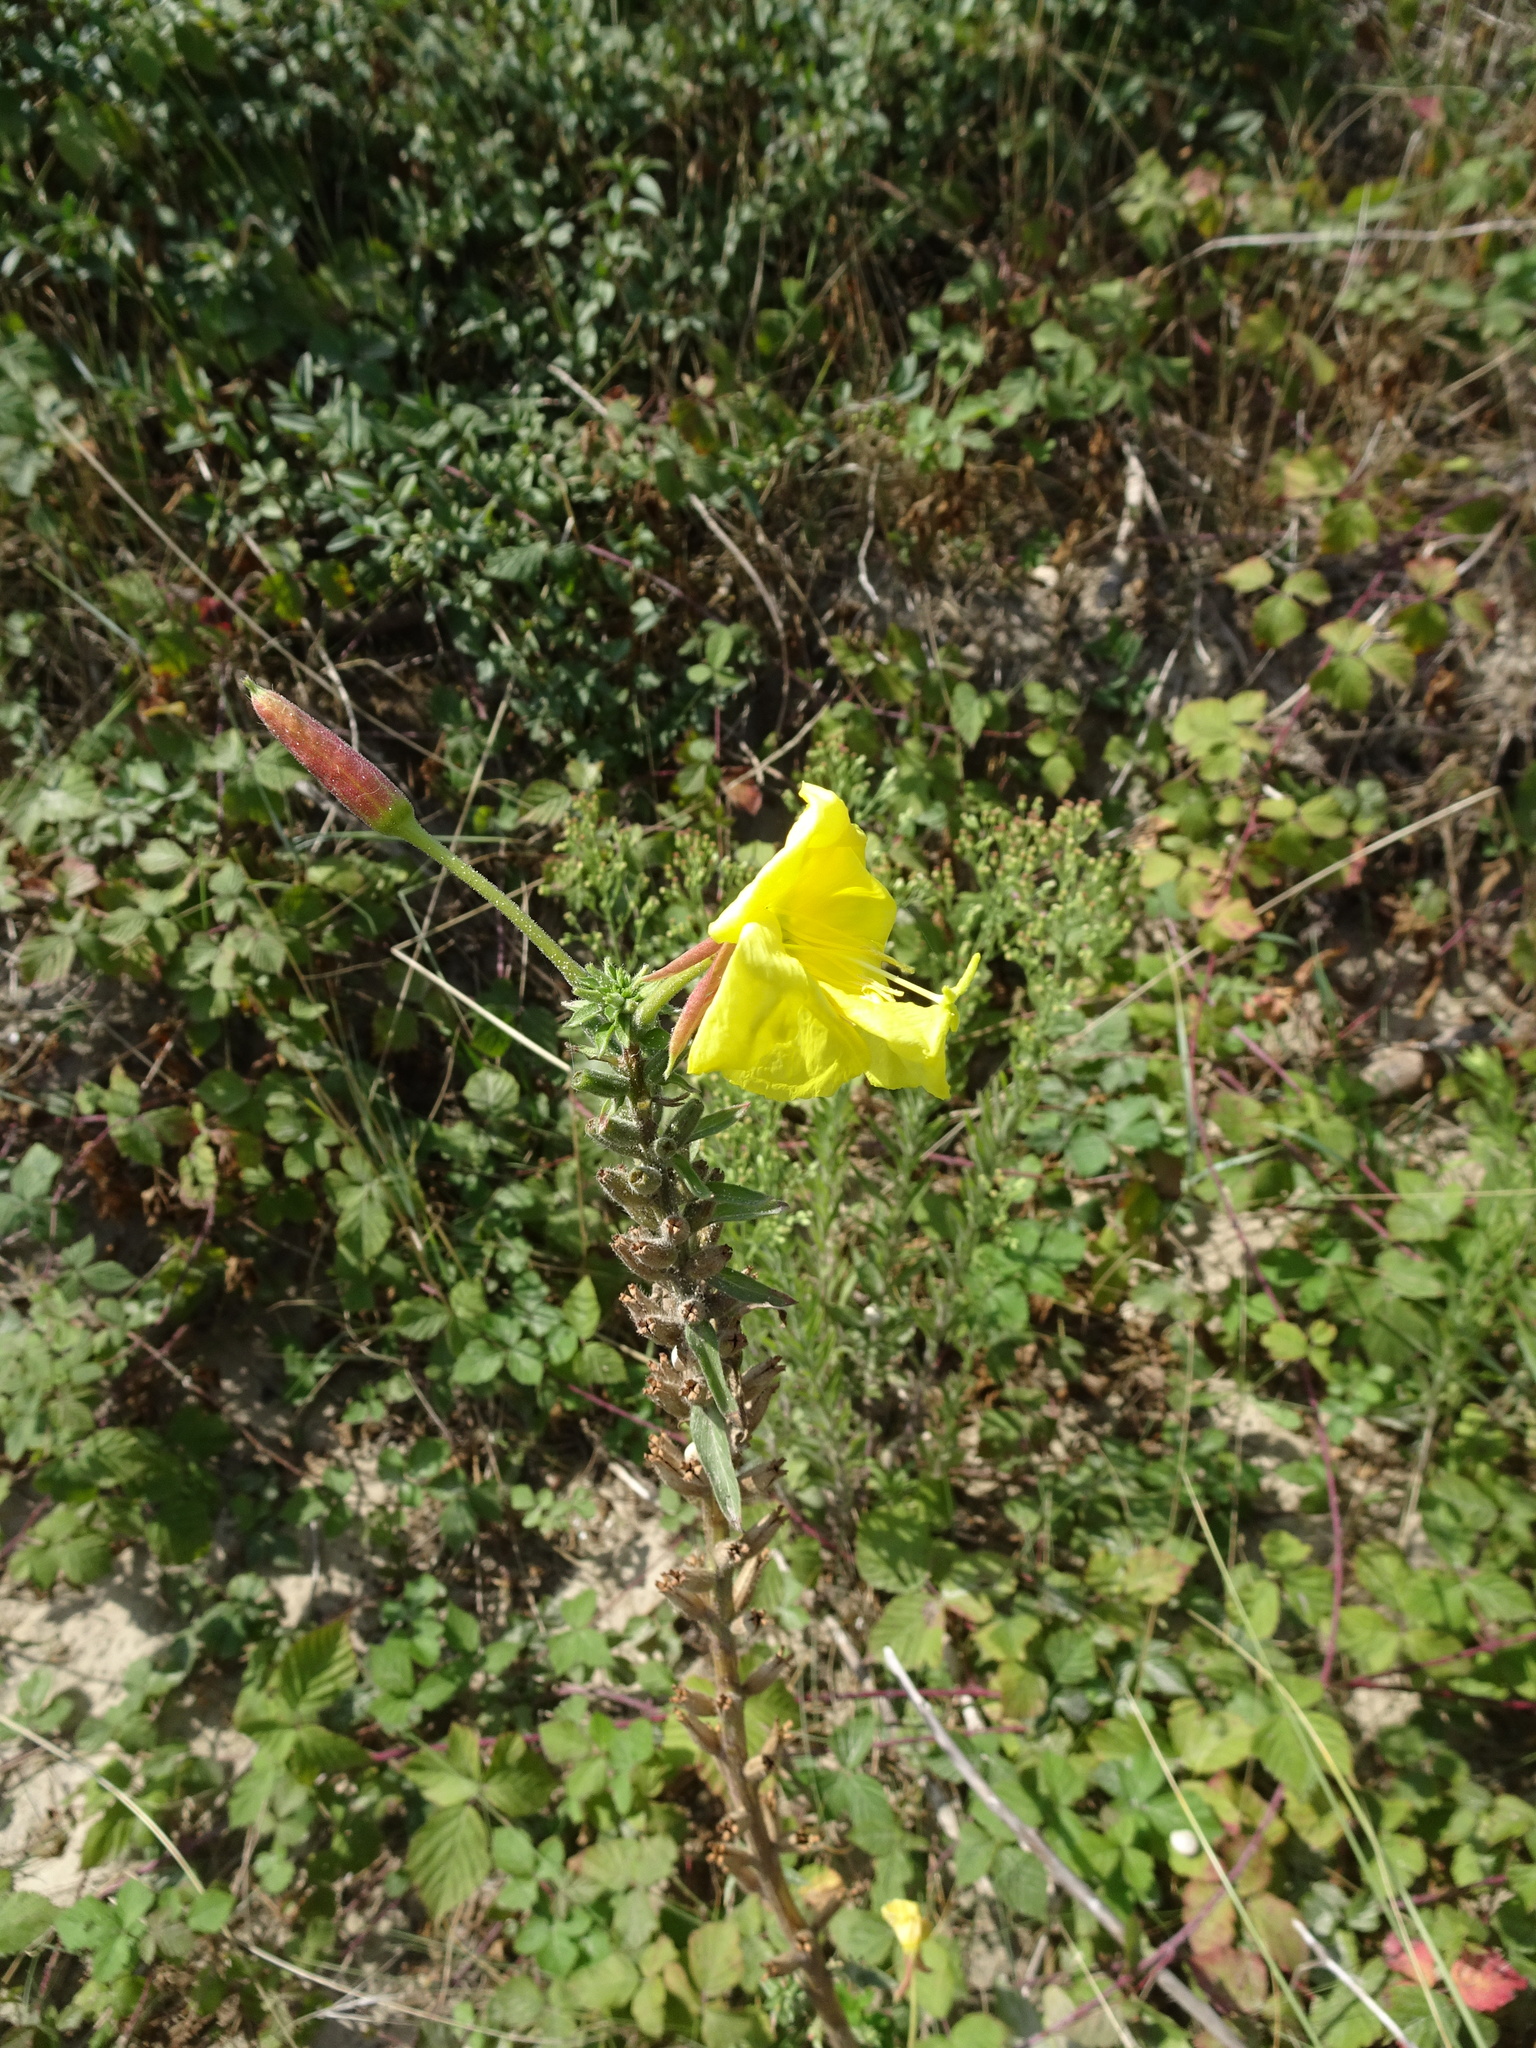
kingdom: Plantae
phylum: Tracheophyta
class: Magnoliopsida
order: Myrtales
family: Onagraceae
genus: Oenothera
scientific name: Oenothera glazioviana
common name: Large-flowered evening-primrose
